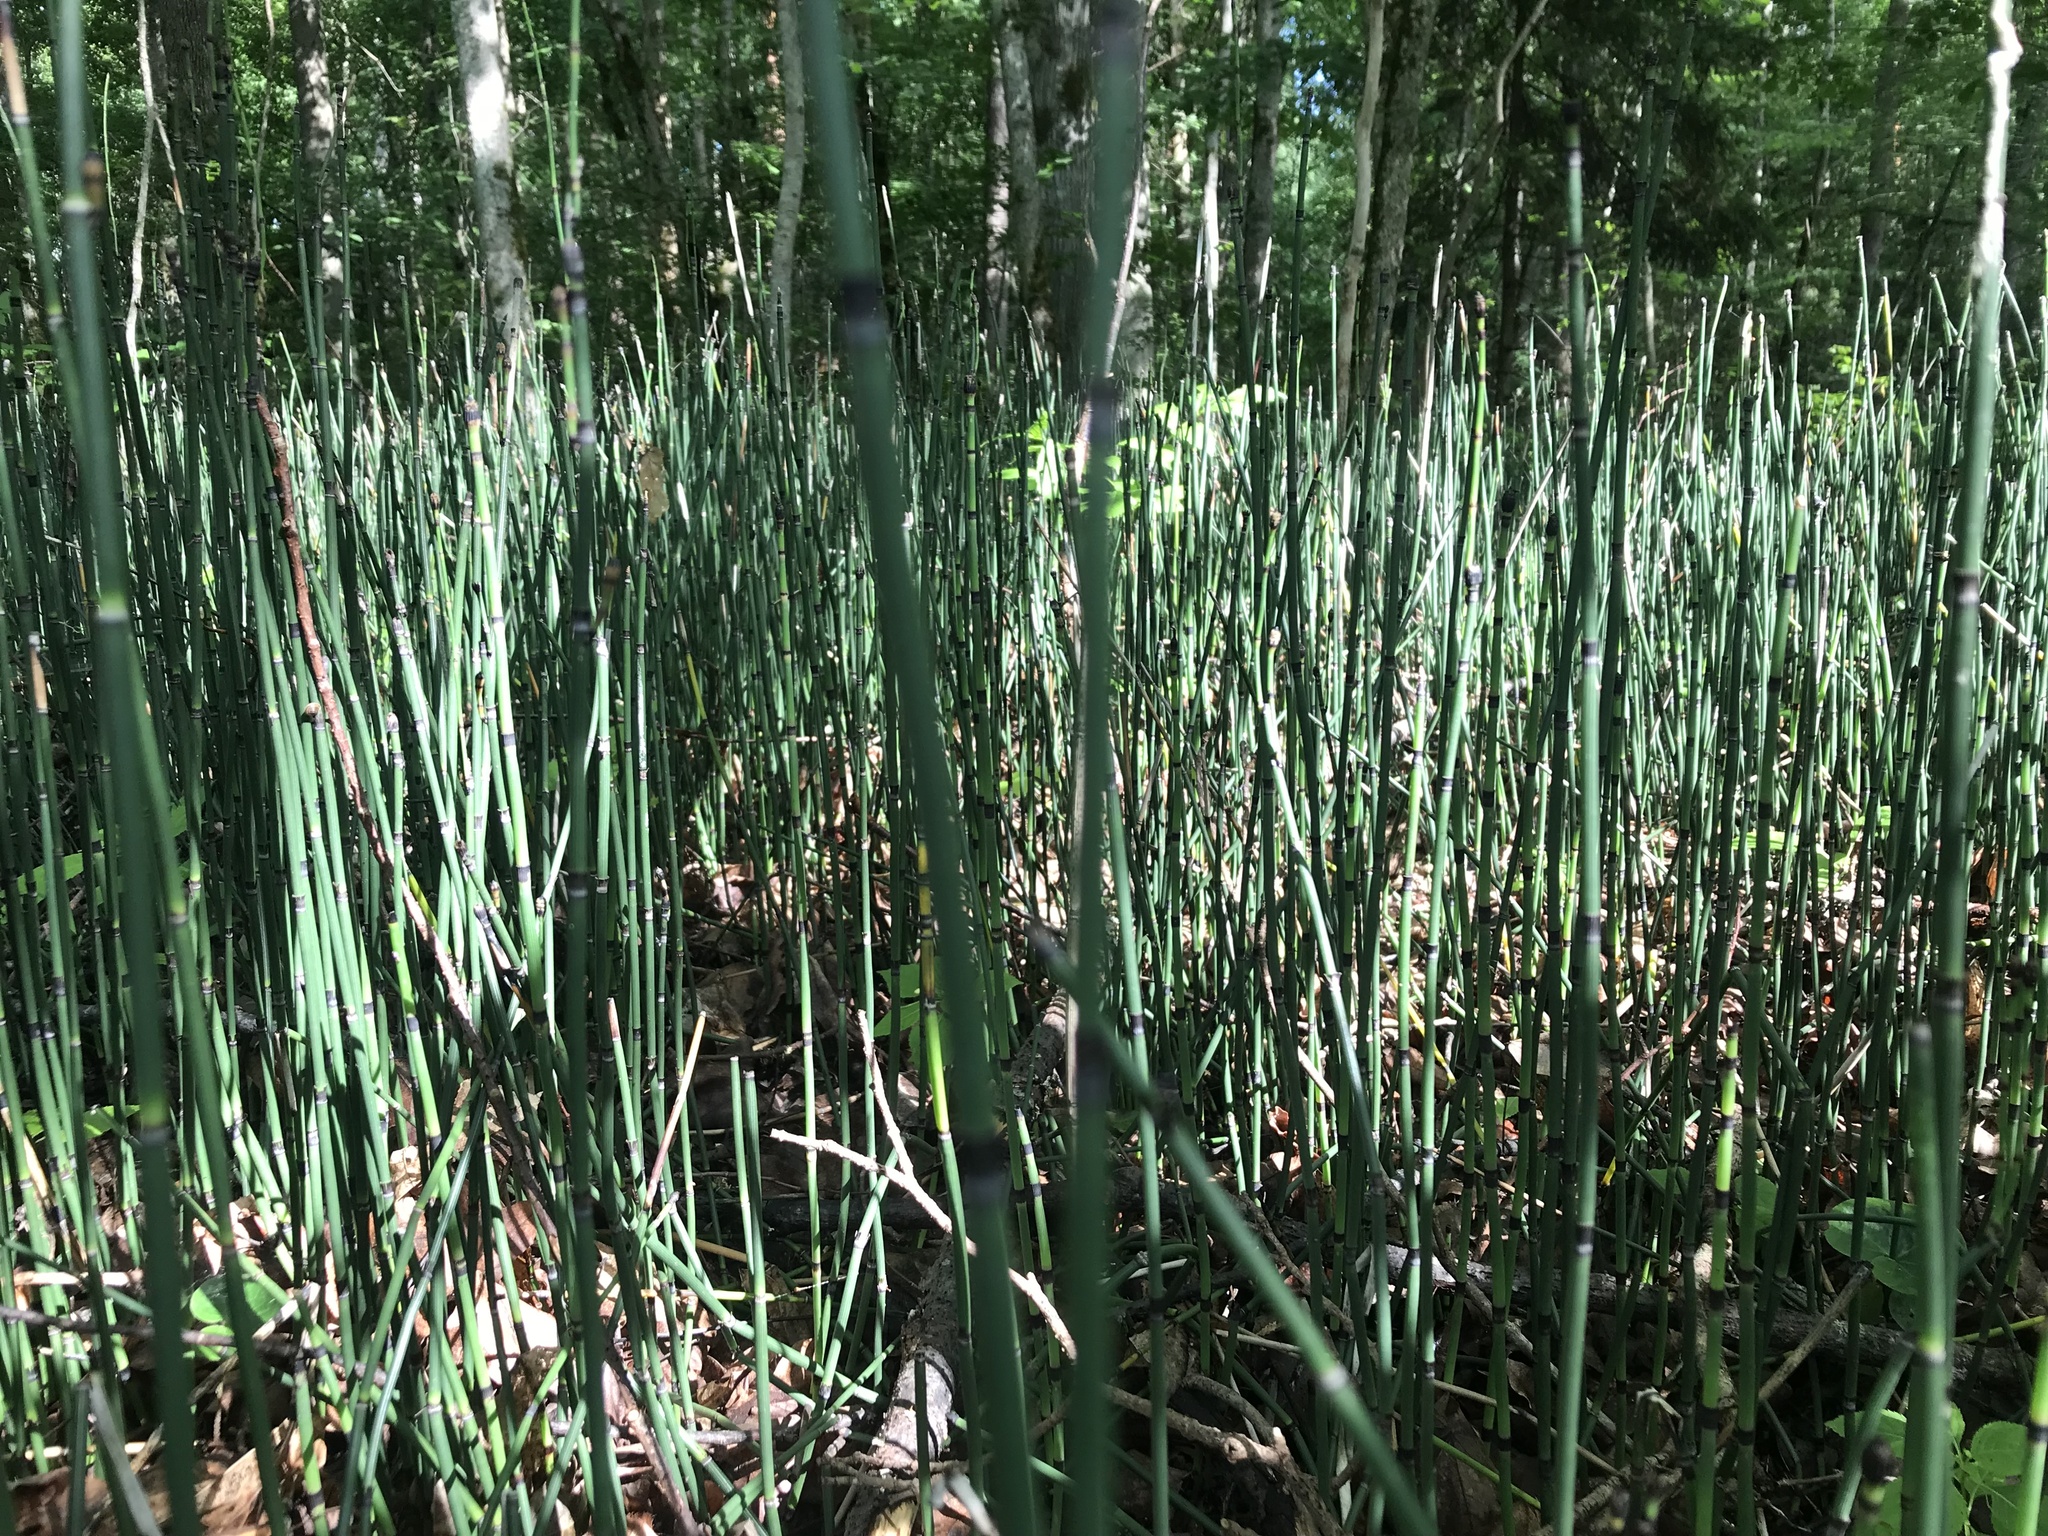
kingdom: Plantae
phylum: Tracheophyta
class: Polypodiopsida
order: Equisetales
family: Equisetaceae
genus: Equisetum
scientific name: Equisetum hyemale
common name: Rough horsetail
